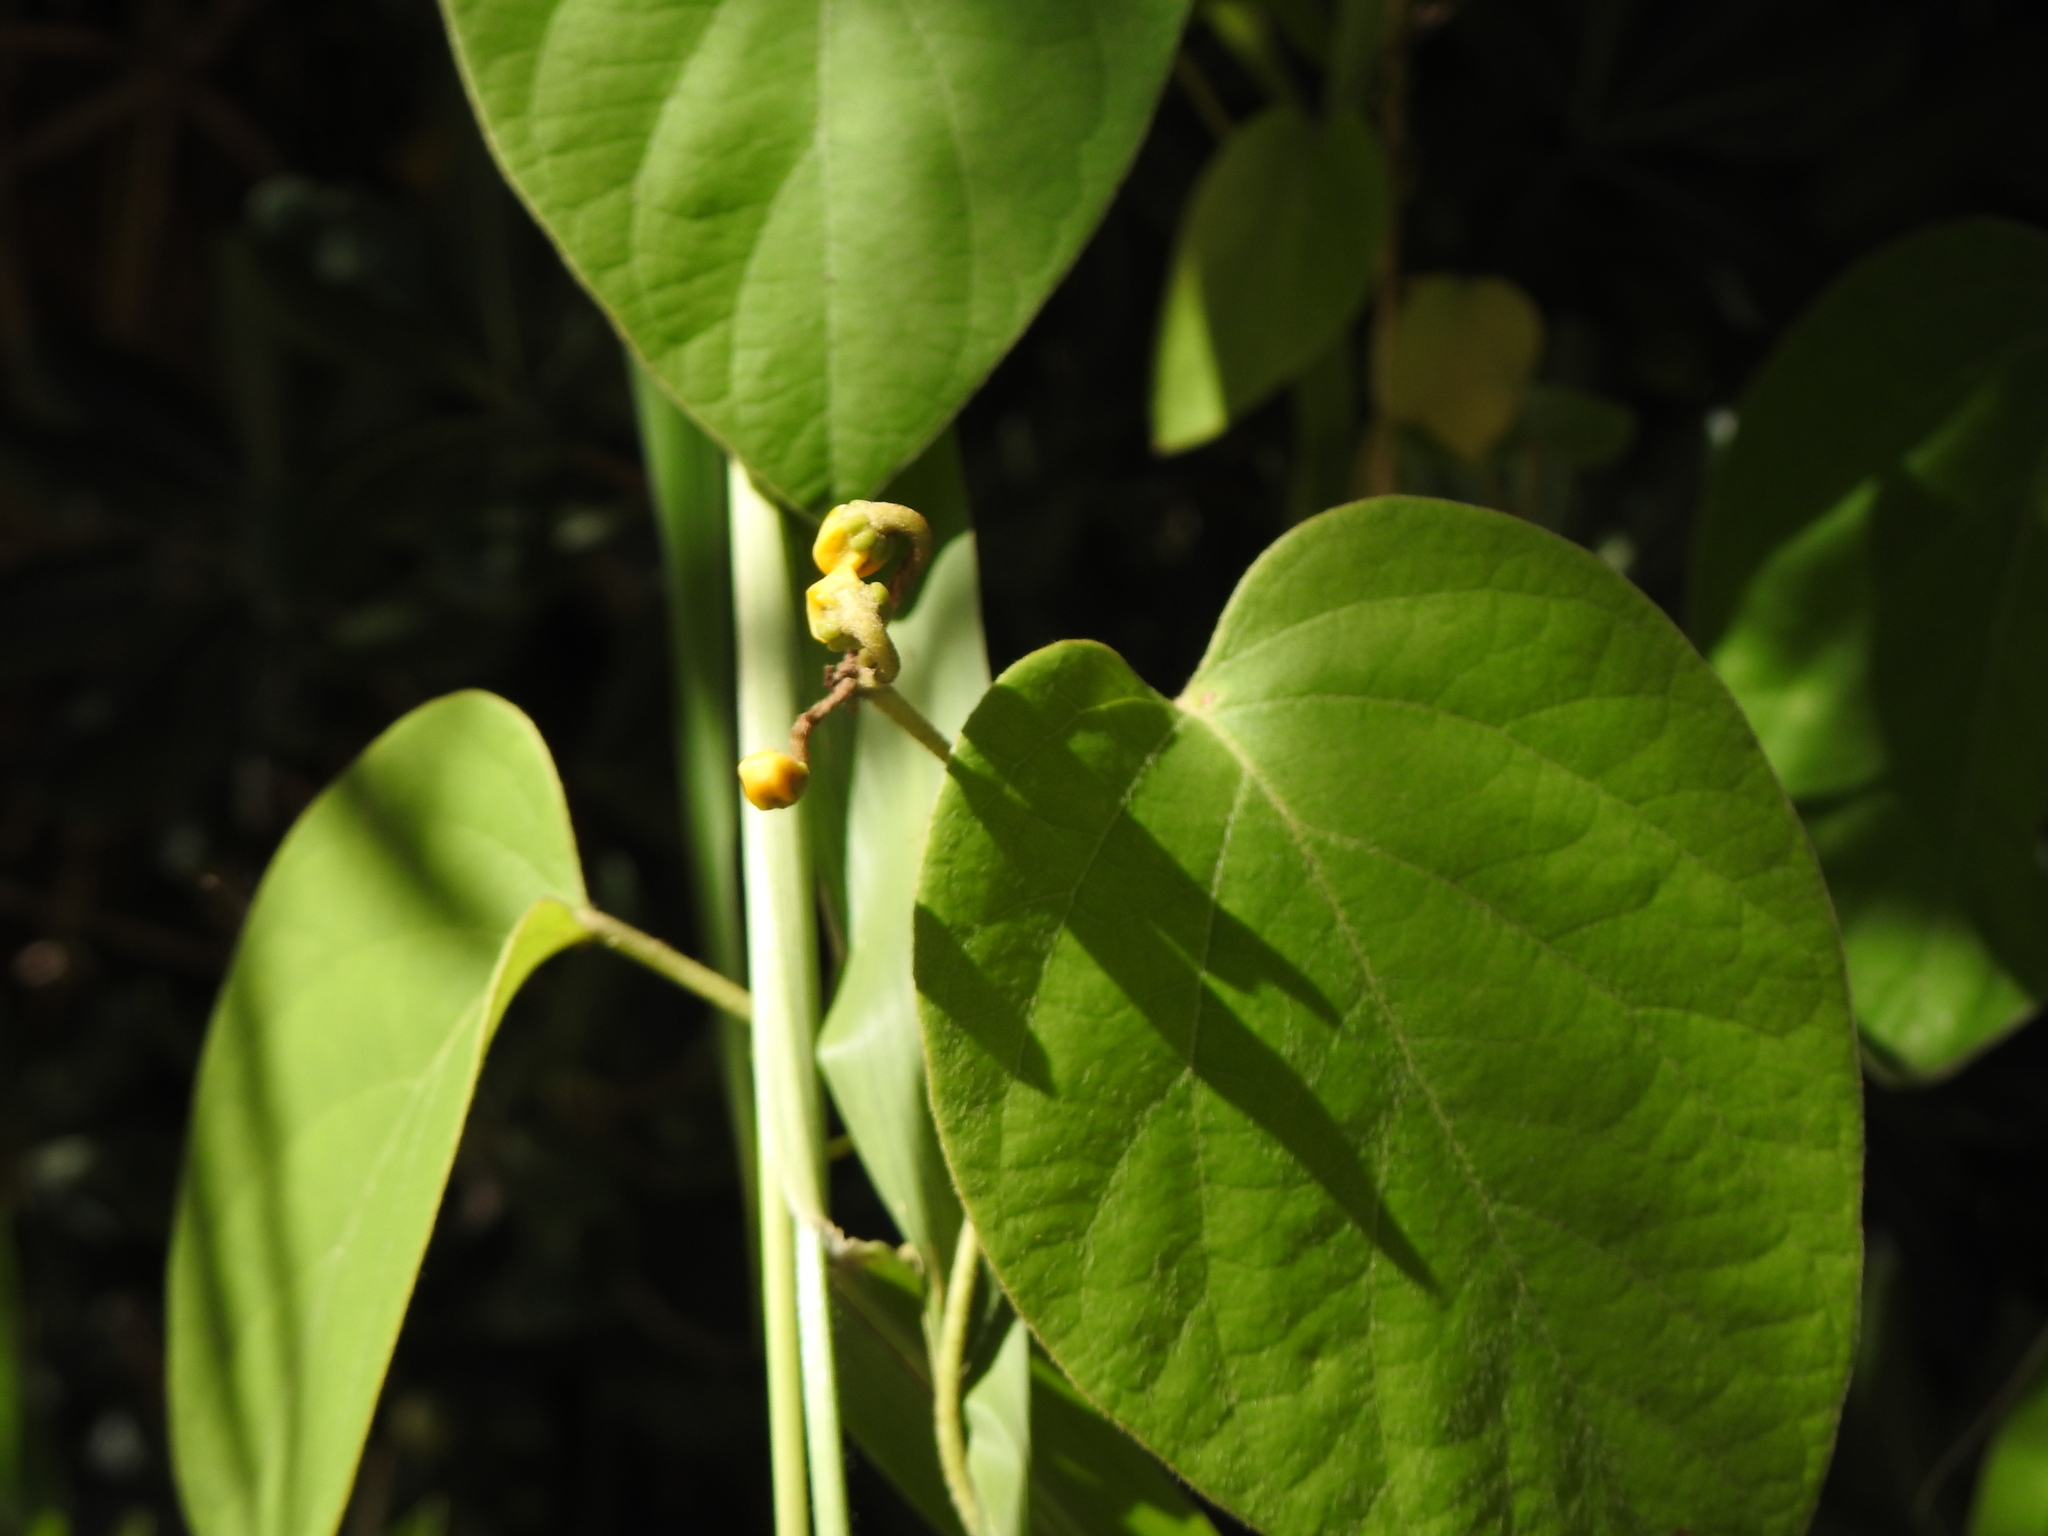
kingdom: Plantae
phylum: Tracheophyta
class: Magnoliopsida
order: Malpighiales
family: Malpighiaceae
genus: Stigmaphyllon
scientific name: Stigmaphyllon bonariense
